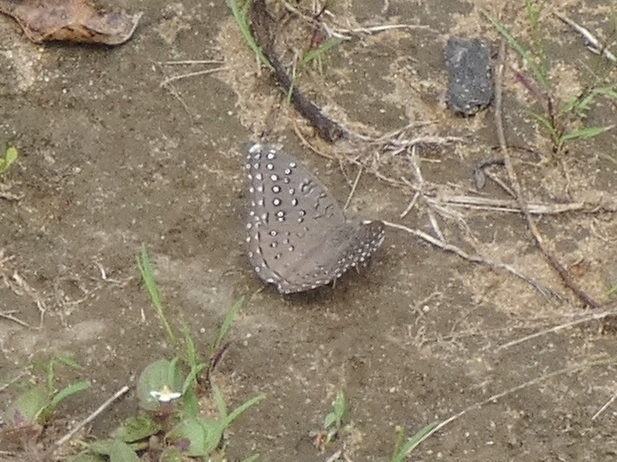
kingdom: Animalia
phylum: Arthropoda
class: Insecta
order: Lepidoptera
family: Nymphalidae
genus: Hamanumida
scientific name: Hamanumida daedalus
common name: Guinea-fowl butterfly
